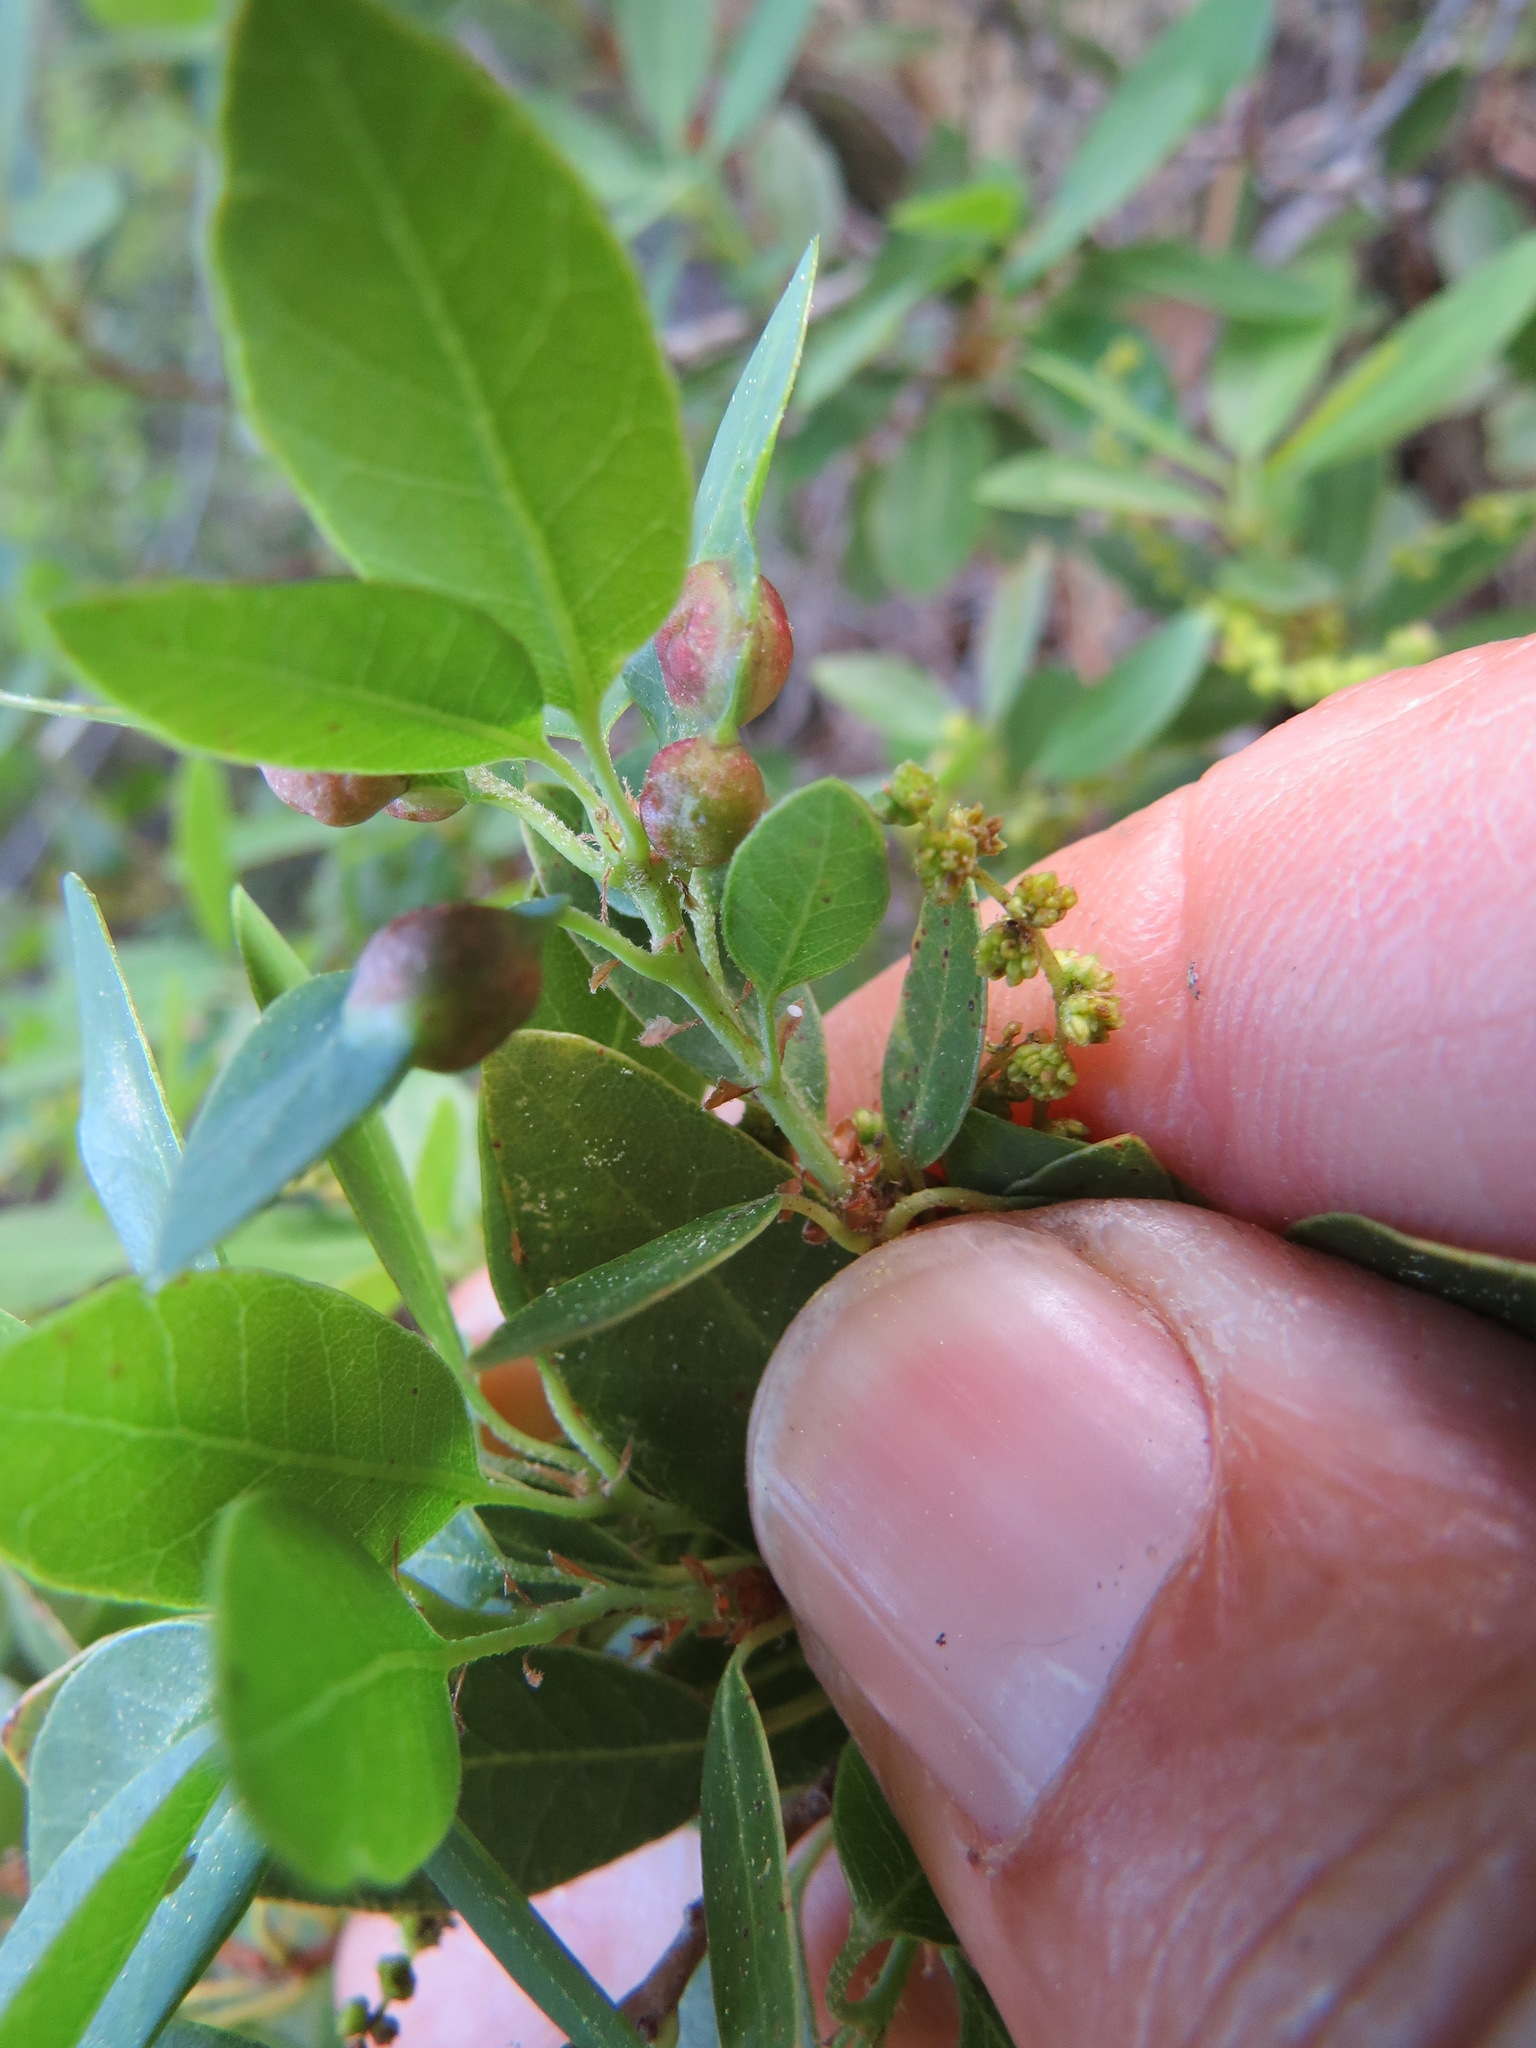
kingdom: Animalia
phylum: Arthropoda
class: Insecta
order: Hymenoptera
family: Cynipidae
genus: Heteroecus
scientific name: Heteroecus
